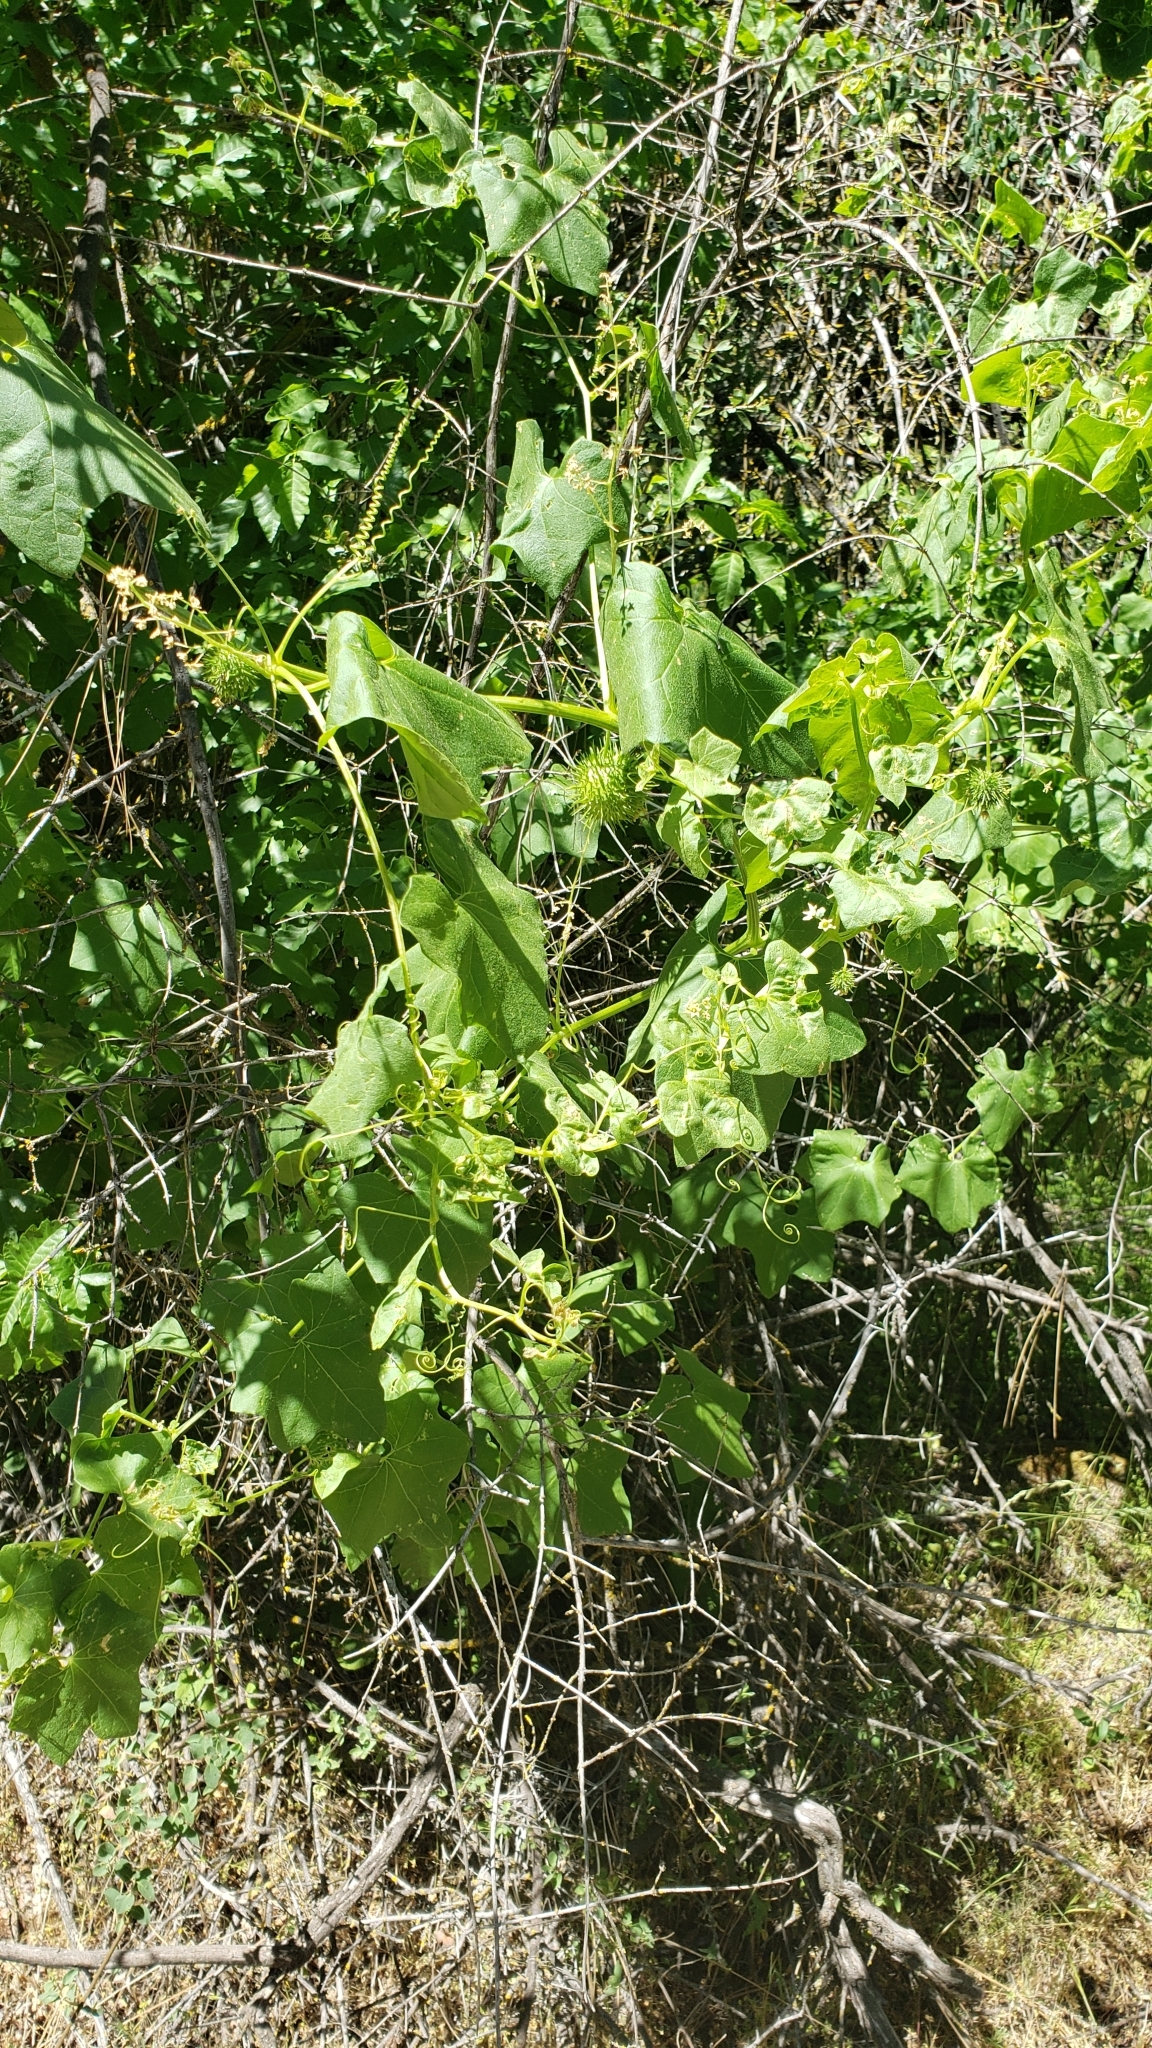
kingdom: Plantae
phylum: Tracheophyta
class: Magnoliopsida
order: Cucurbitales
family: Cucurbitaceae
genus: Marah
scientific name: Marah fabacea
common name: California manroot
